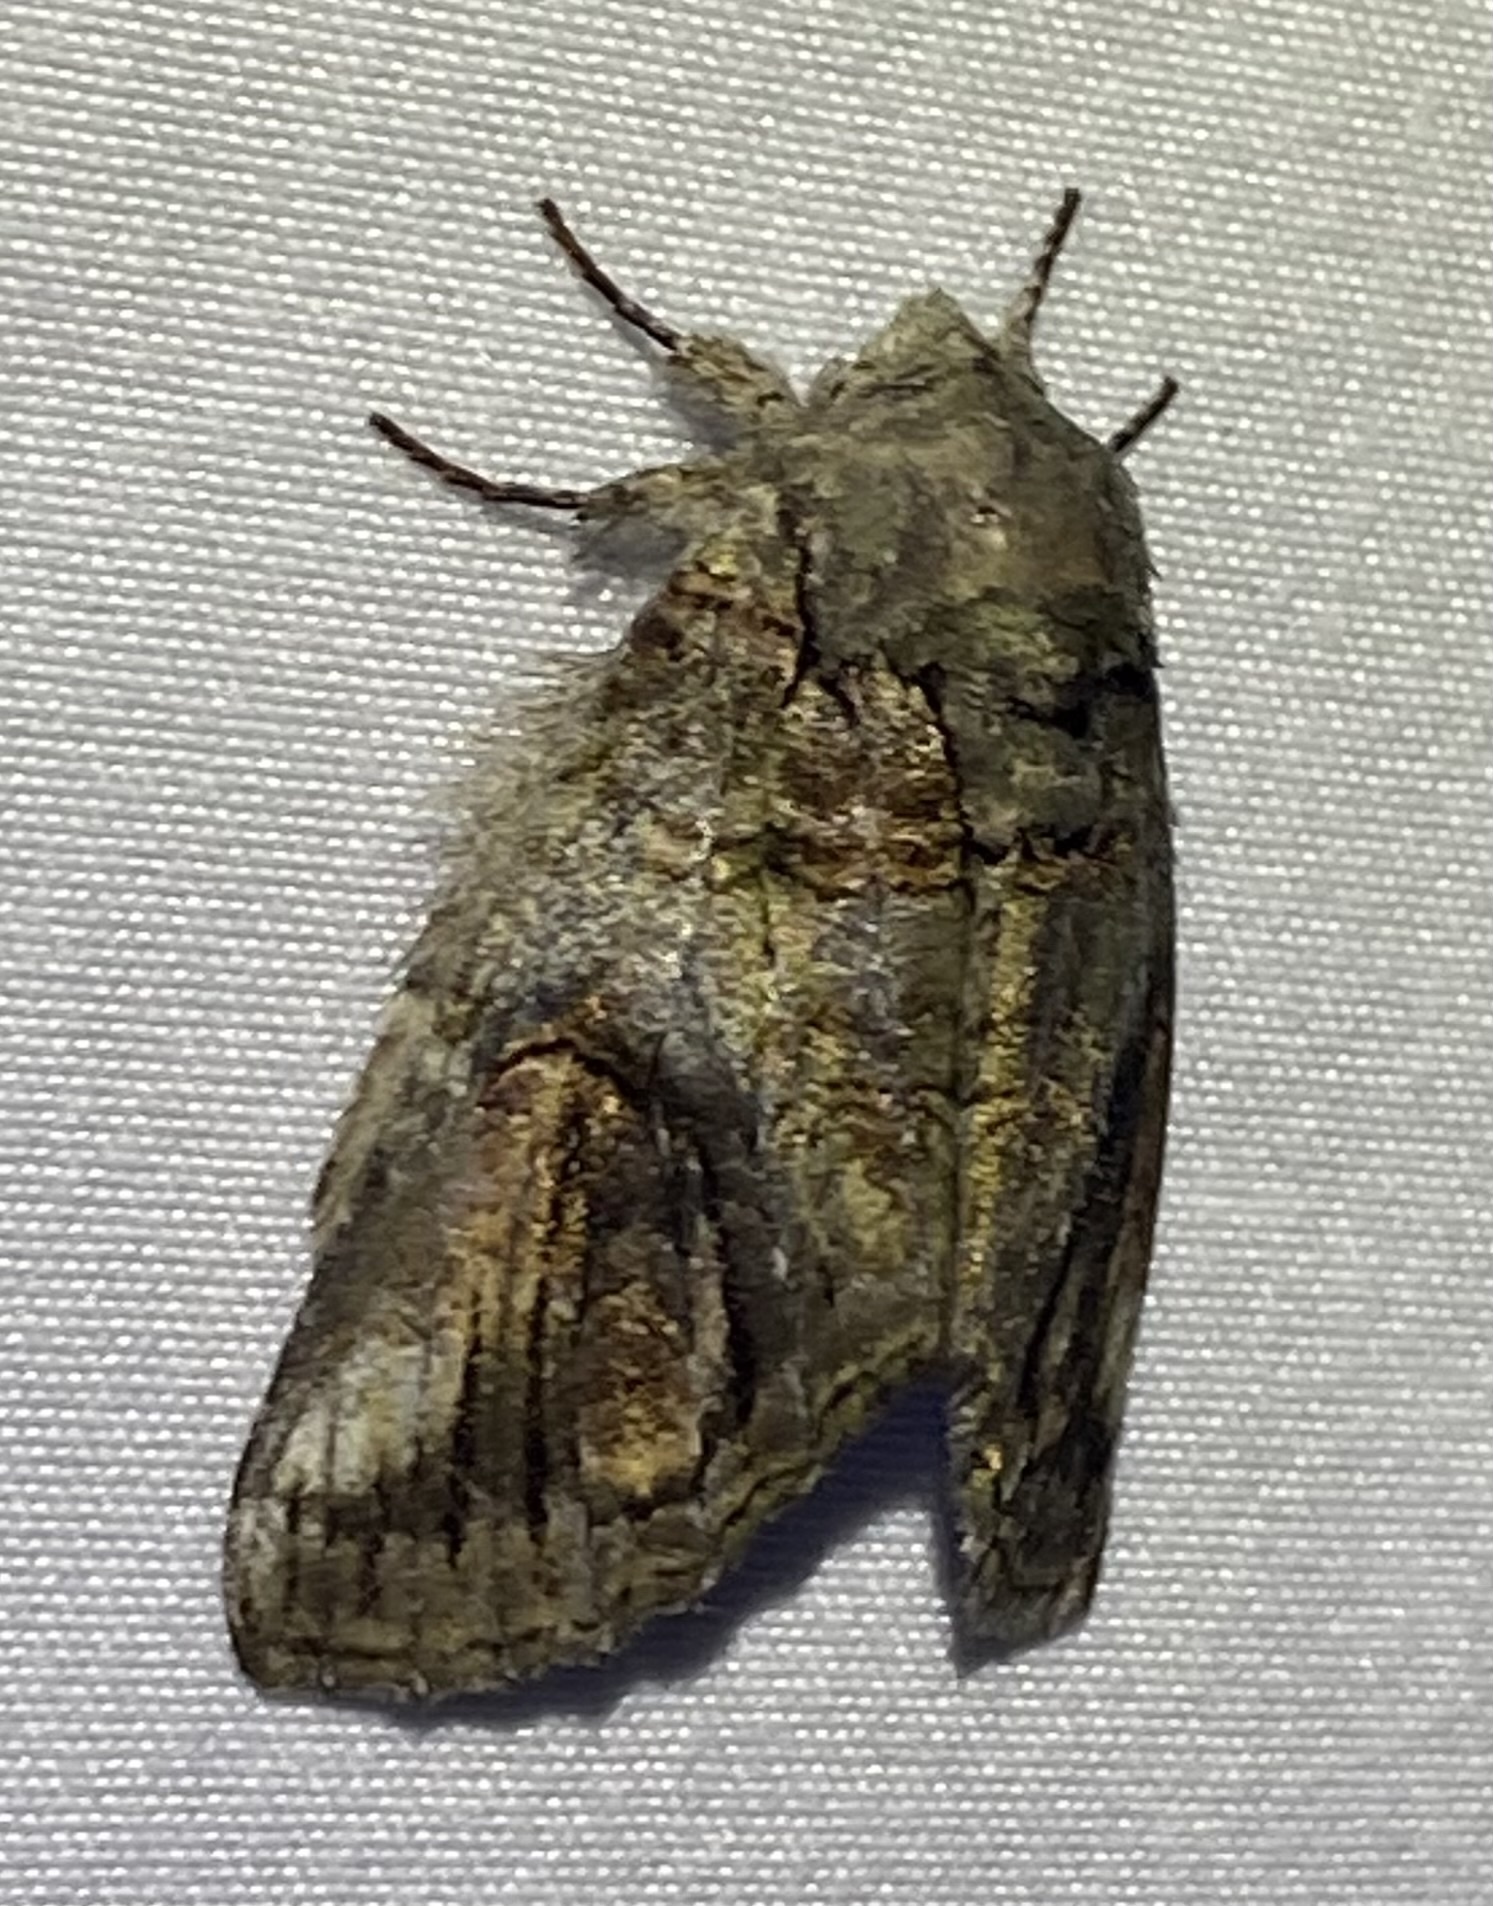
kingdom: Animalia
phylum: Arthropoda
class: Insecta
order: Lepidoptera
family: Notodontidae
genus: Heterocampa
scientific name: Heterocampa obliqua
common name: Oblique heterocampa
